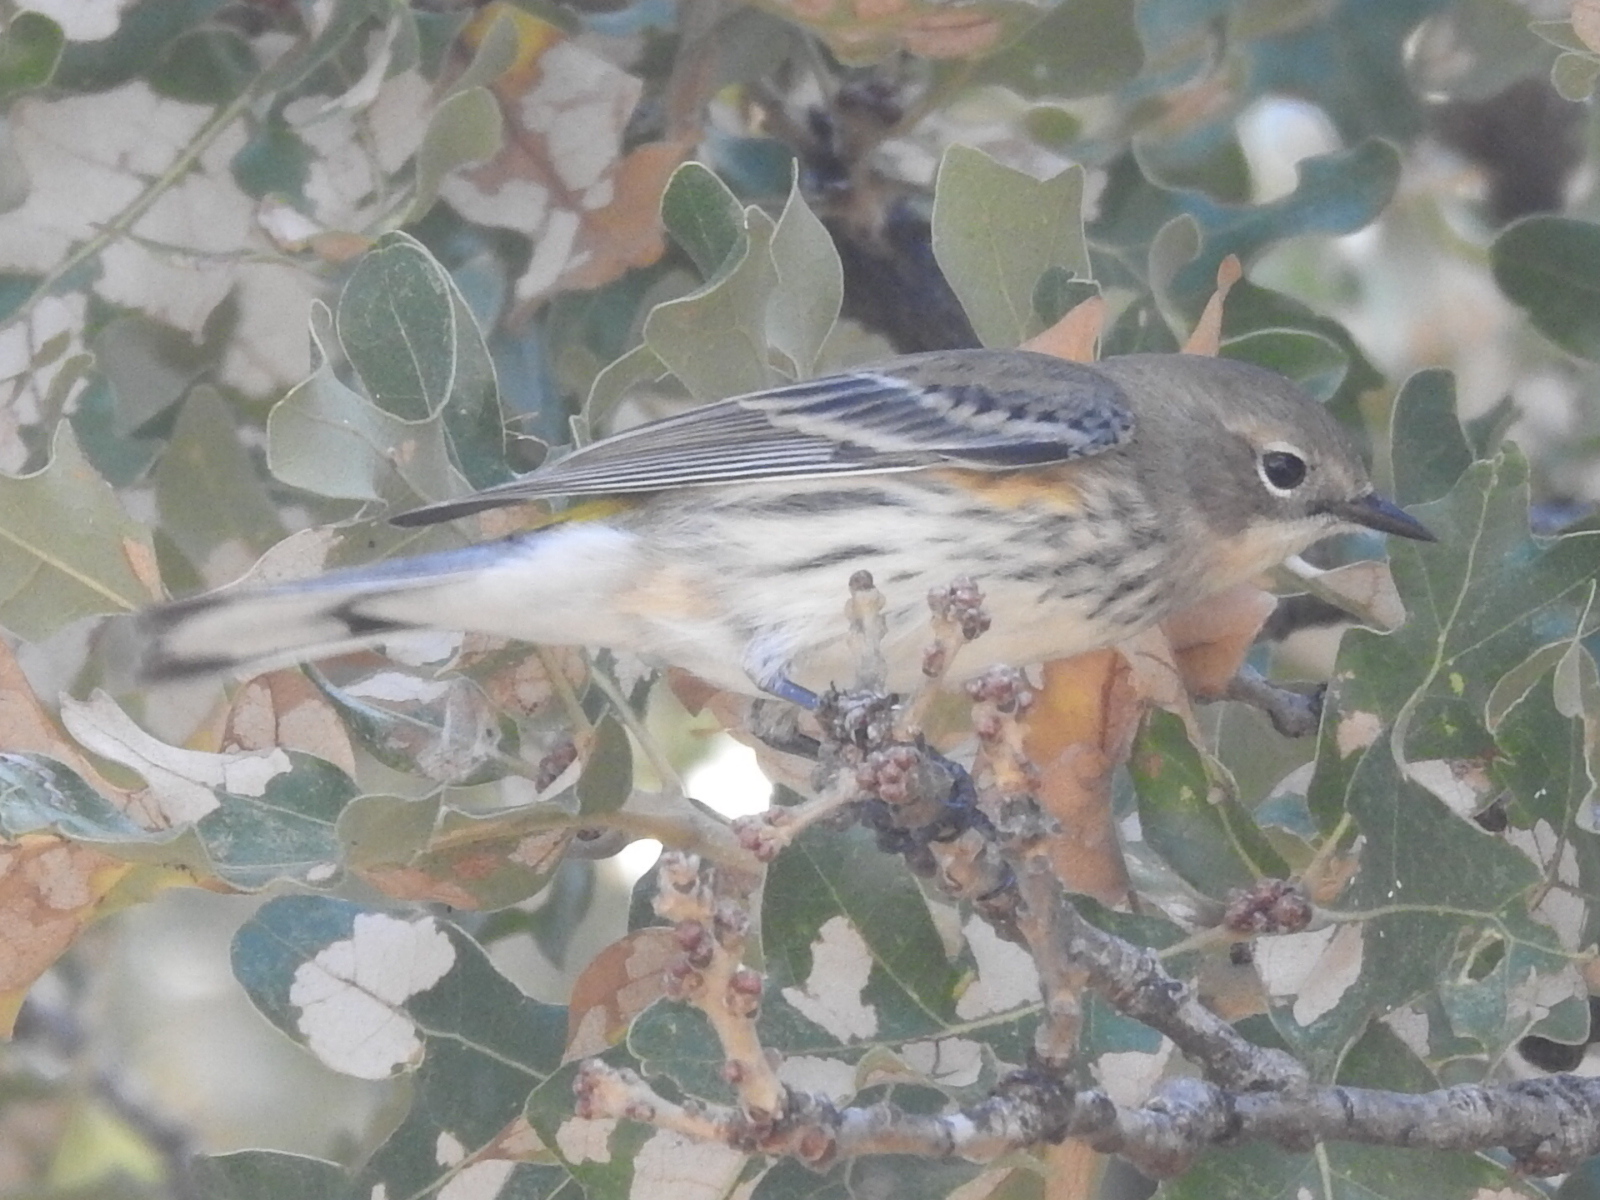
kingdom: Animalia
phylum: Chordata
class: Aves
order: Passeriformes
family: Parulidae
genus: Setophaga
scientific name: Setophaga coronata
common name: Myrtle warbler
